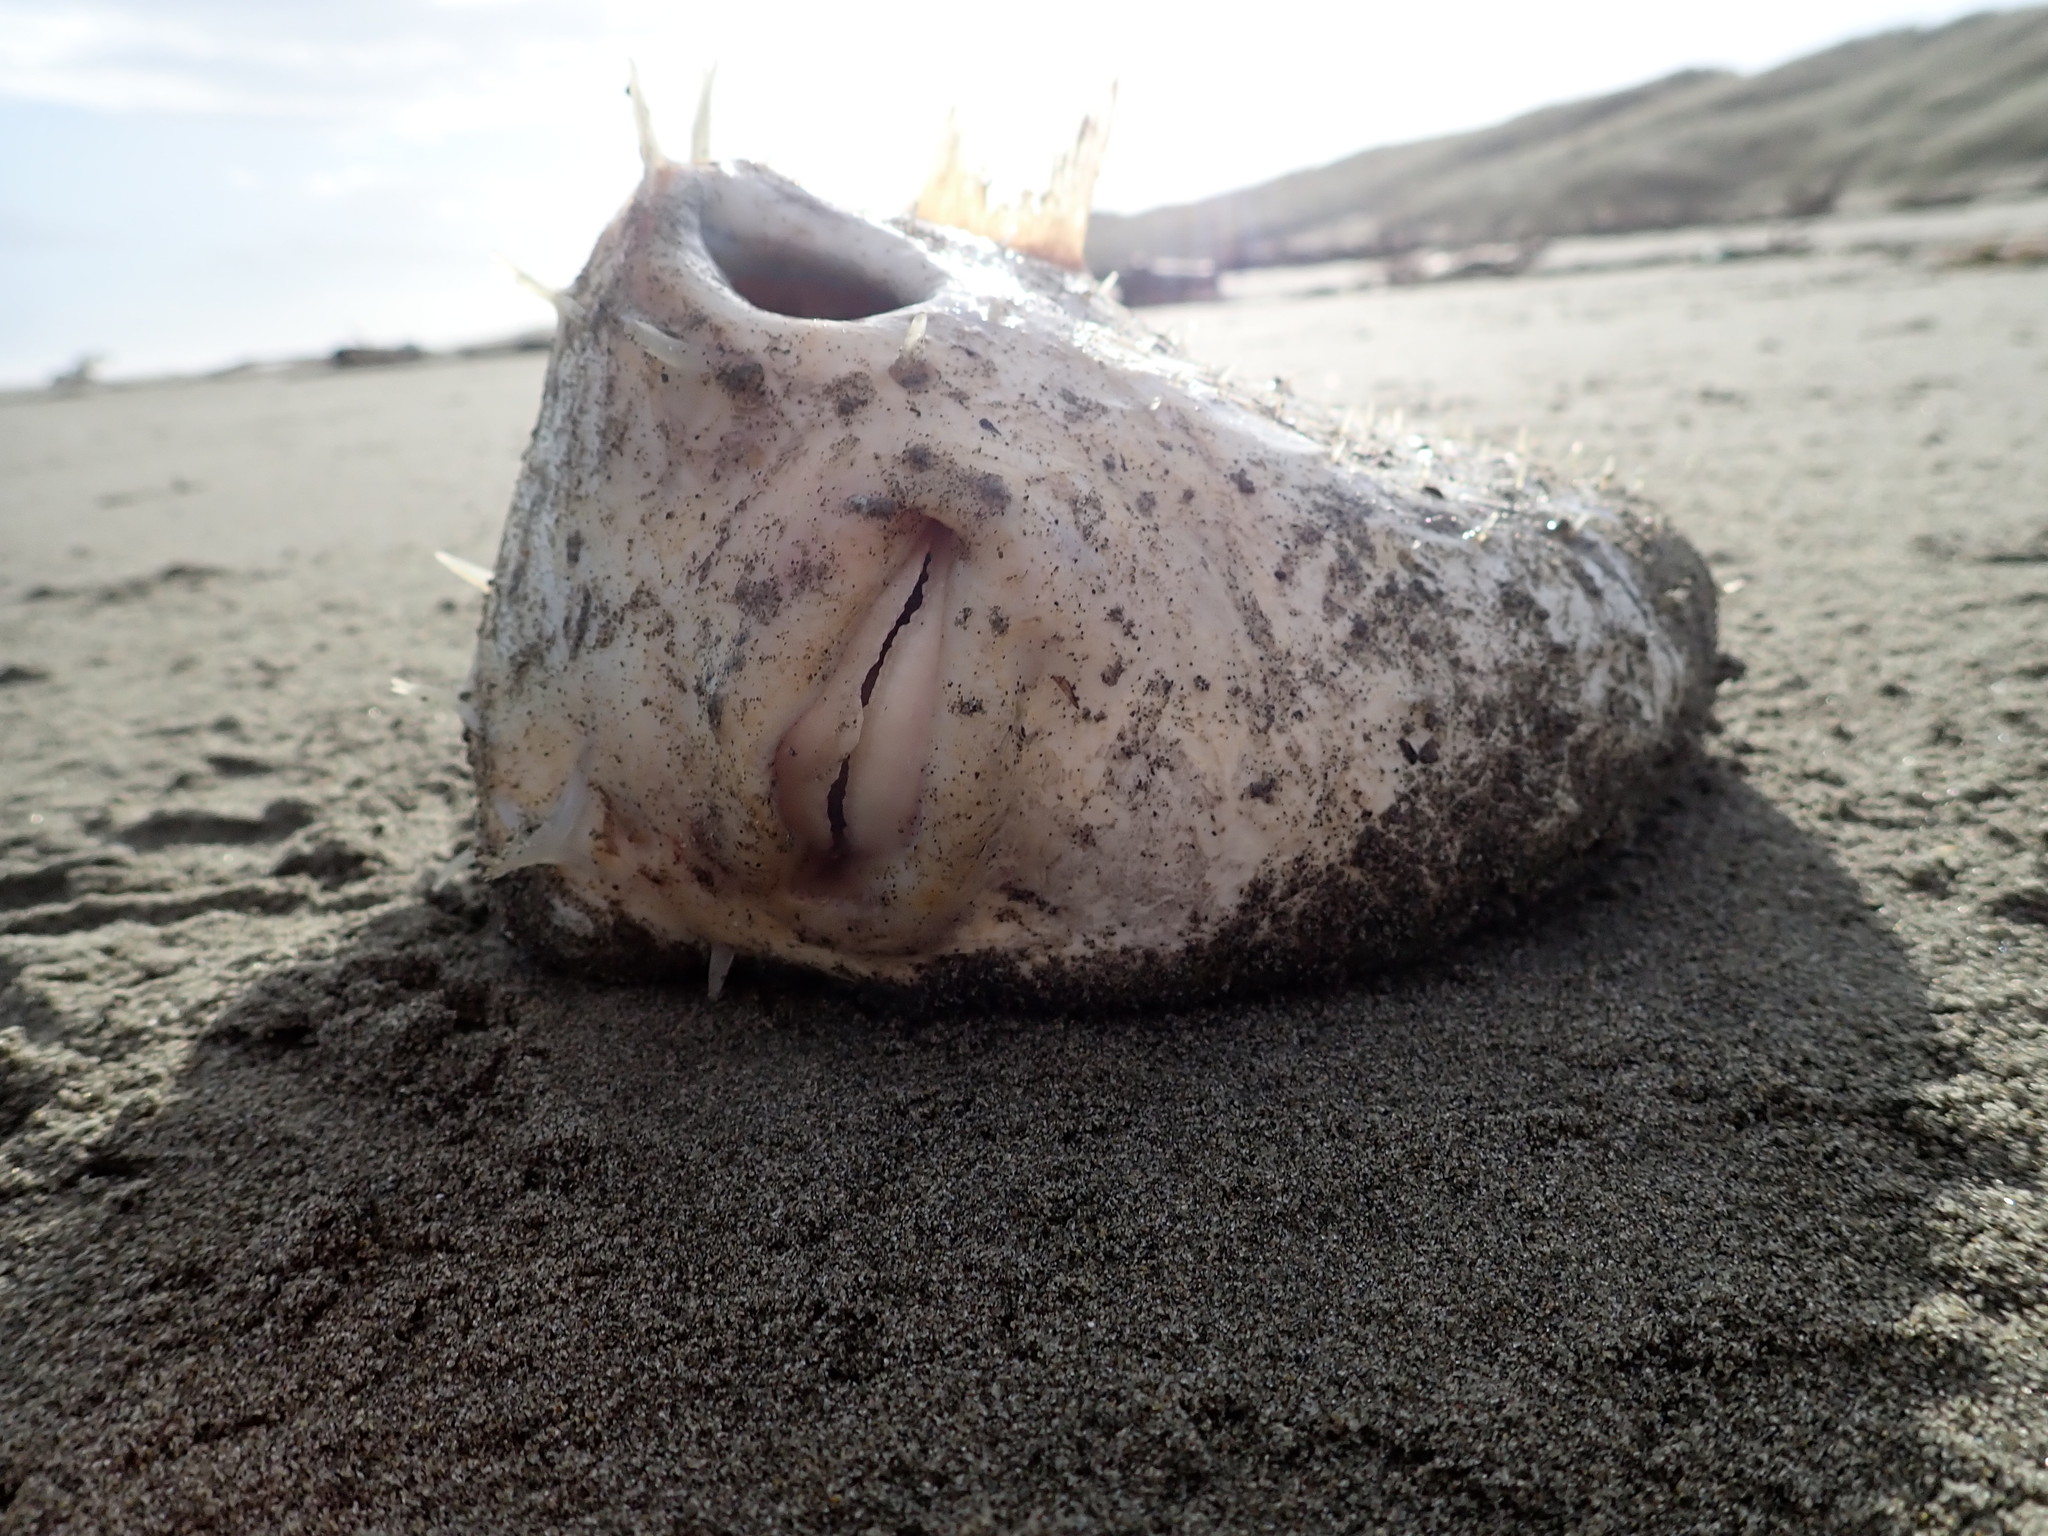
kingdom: Animalia
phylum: Chordata
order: Tetraodontiformes
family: Diodontidae
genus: Allomycterus
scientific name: Allomycterus pilatus
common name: No common name
